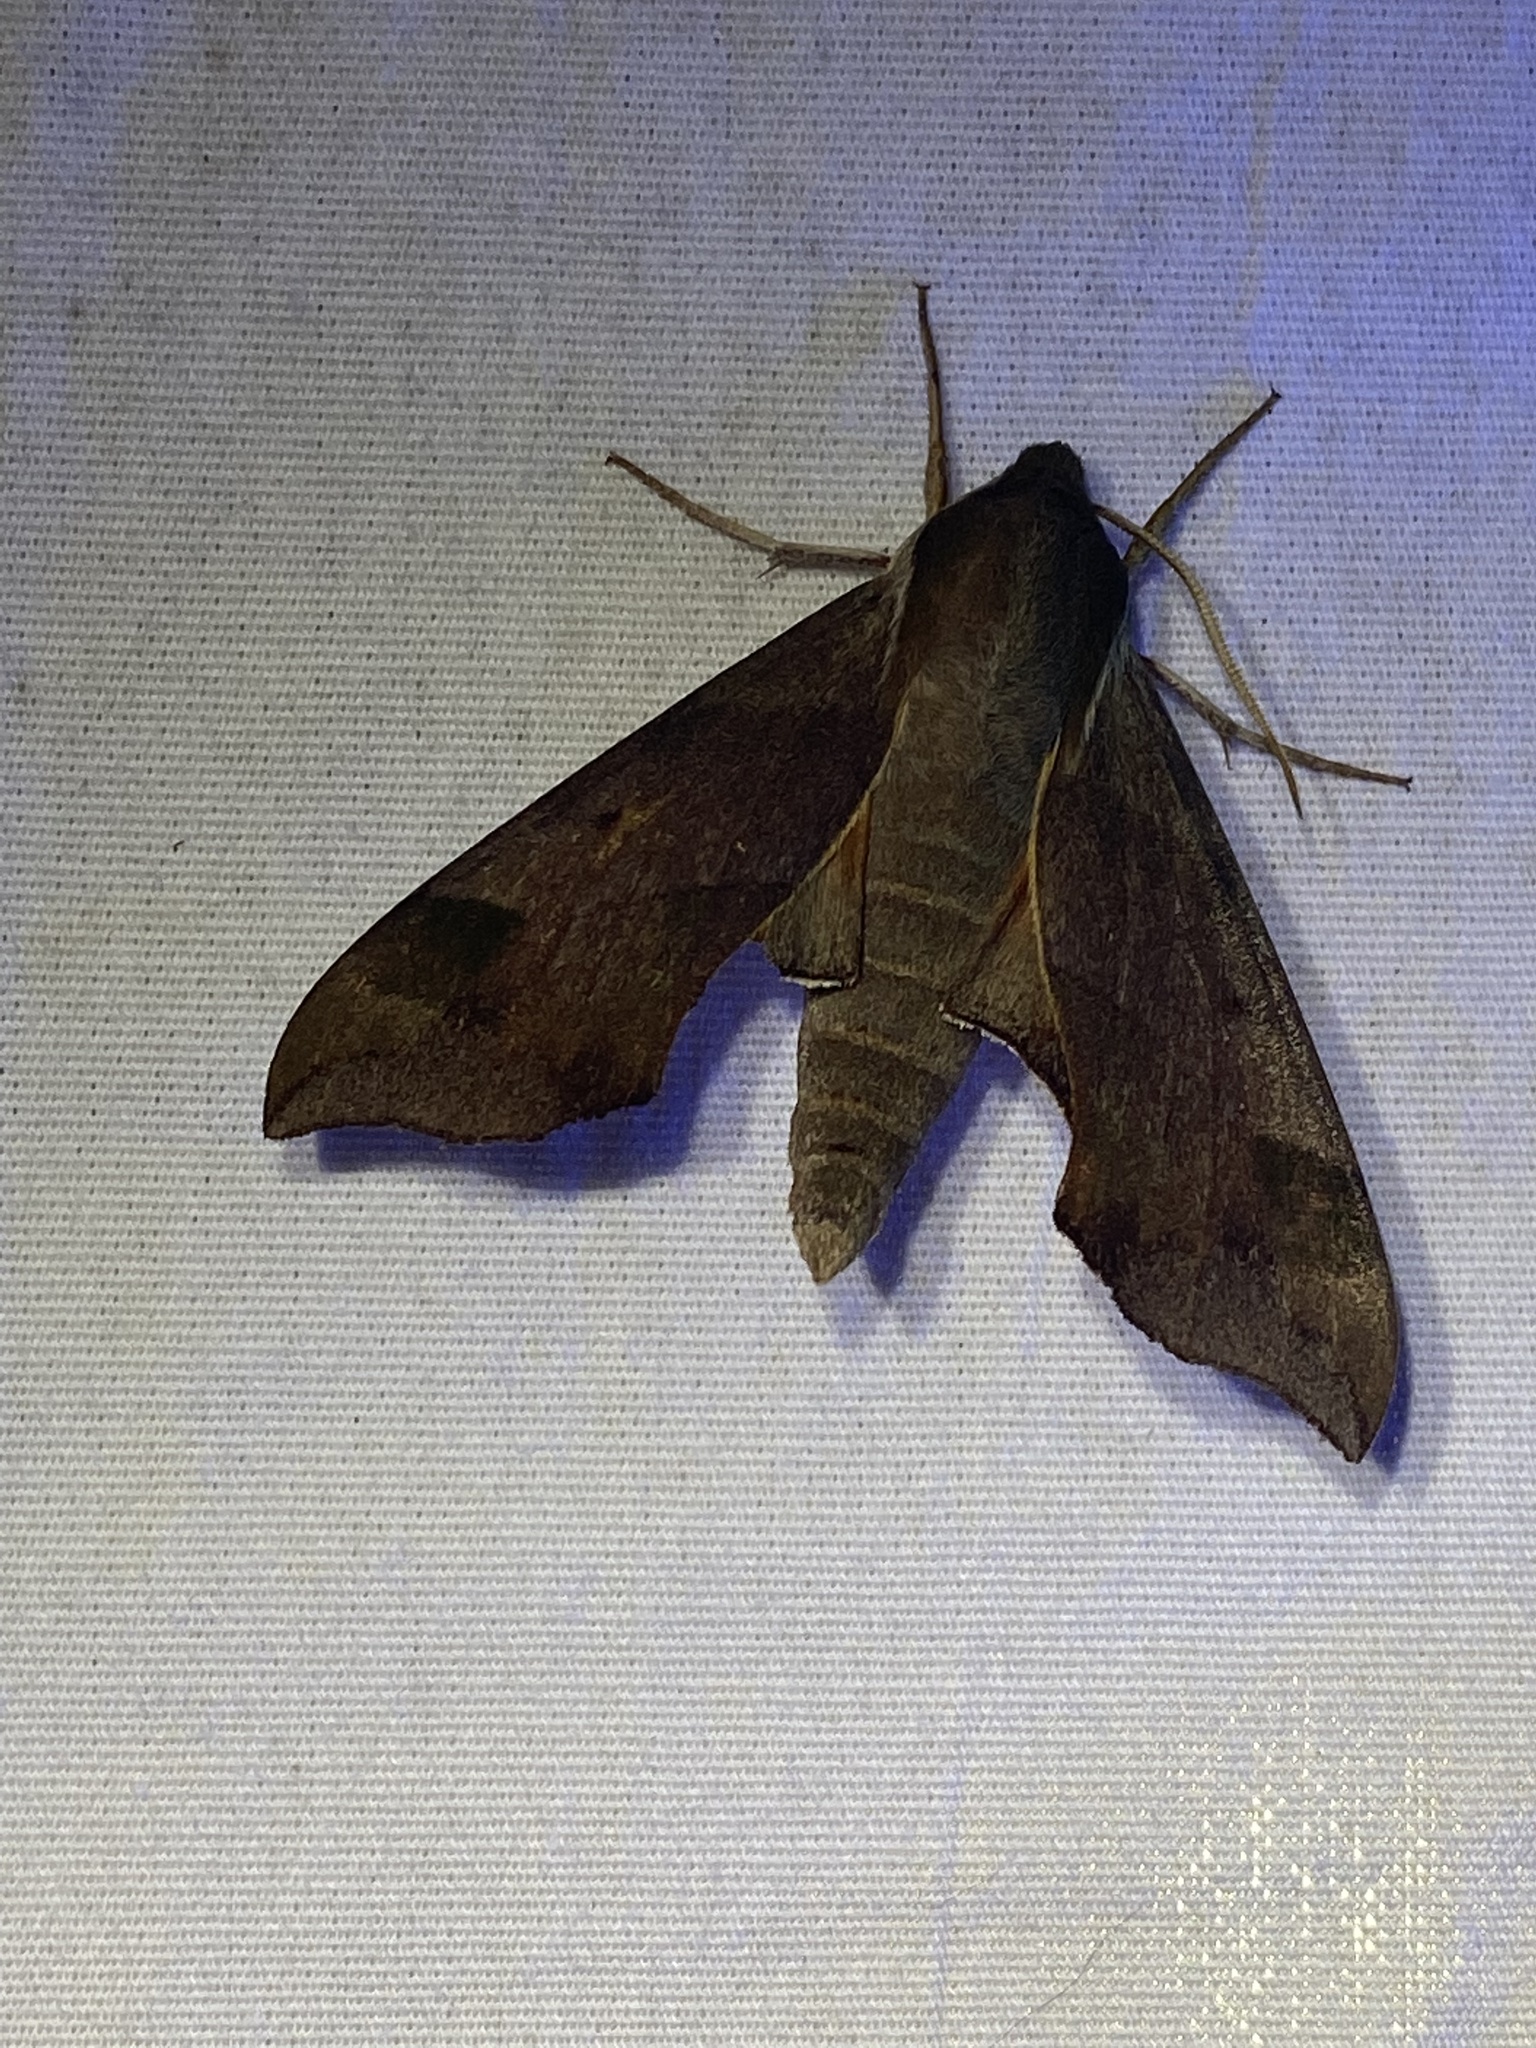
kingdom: Animalia
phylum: Arthropoda
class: Insecta
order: Lepidoptera
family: Sphingidae
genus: Darapsa
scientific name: Darapsa myron
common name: Hog sphinx
